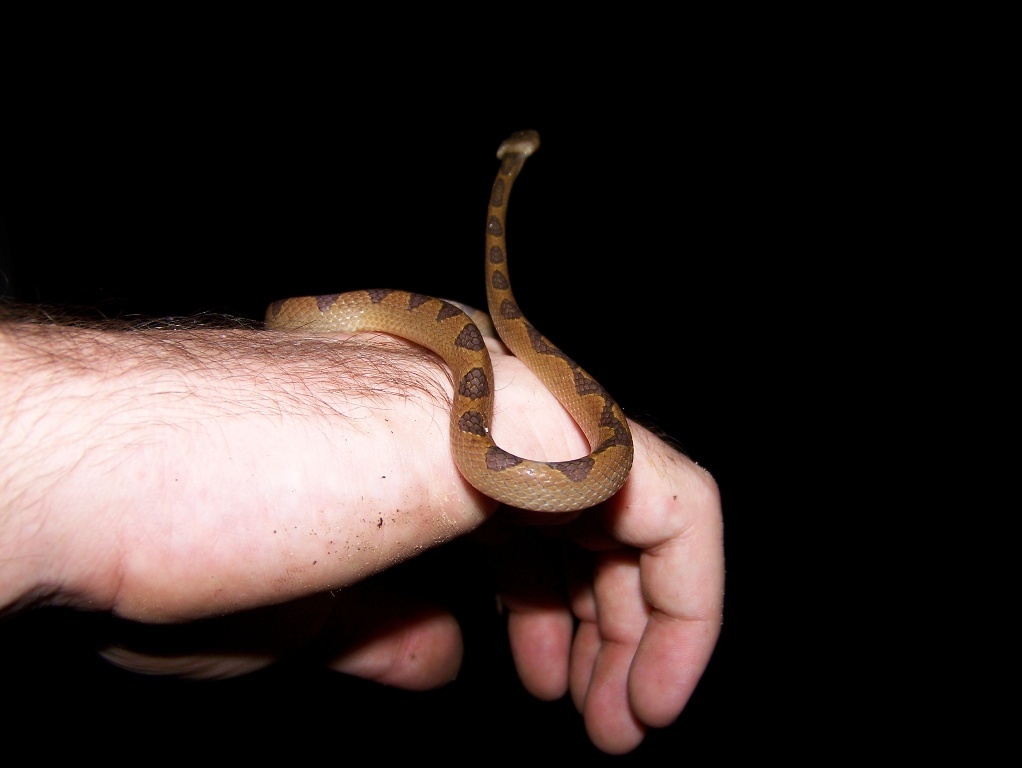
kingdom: Animalia
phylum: Chordata
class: Squamata
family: Colubridae
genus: Leptodeira
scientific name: Leptodeira annulata
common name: Banded cat-eyed snake
